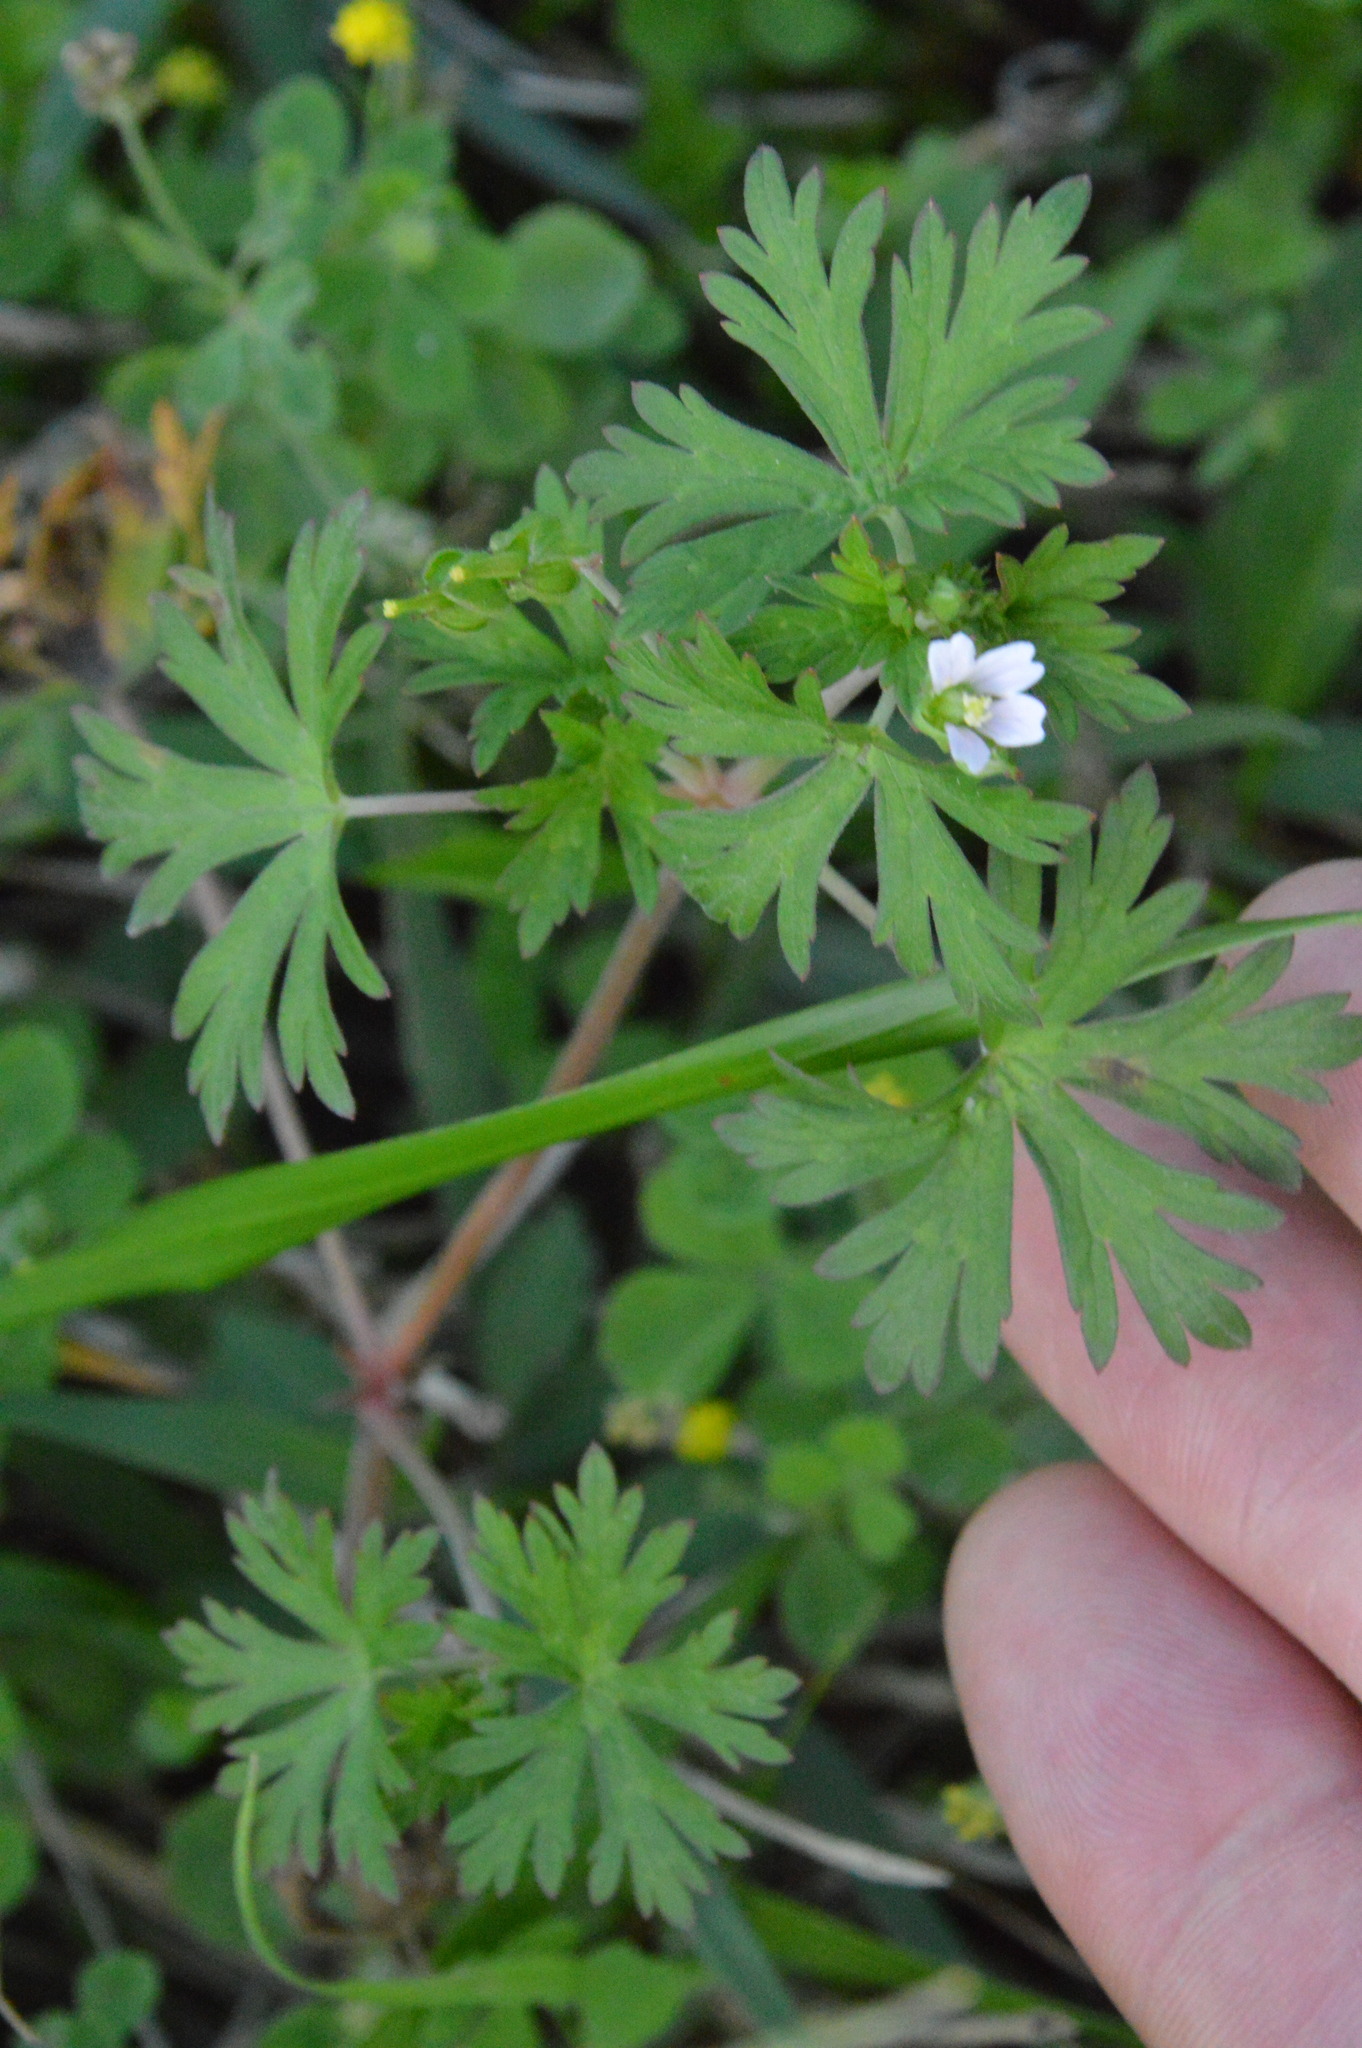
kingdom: Plantae
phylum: Tracheophyta
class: Magnoliopsida
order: Geraniales
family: Geraniaceae
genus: Geranium
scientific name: Geranium carolinianum
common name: Carolina crane's-bill
